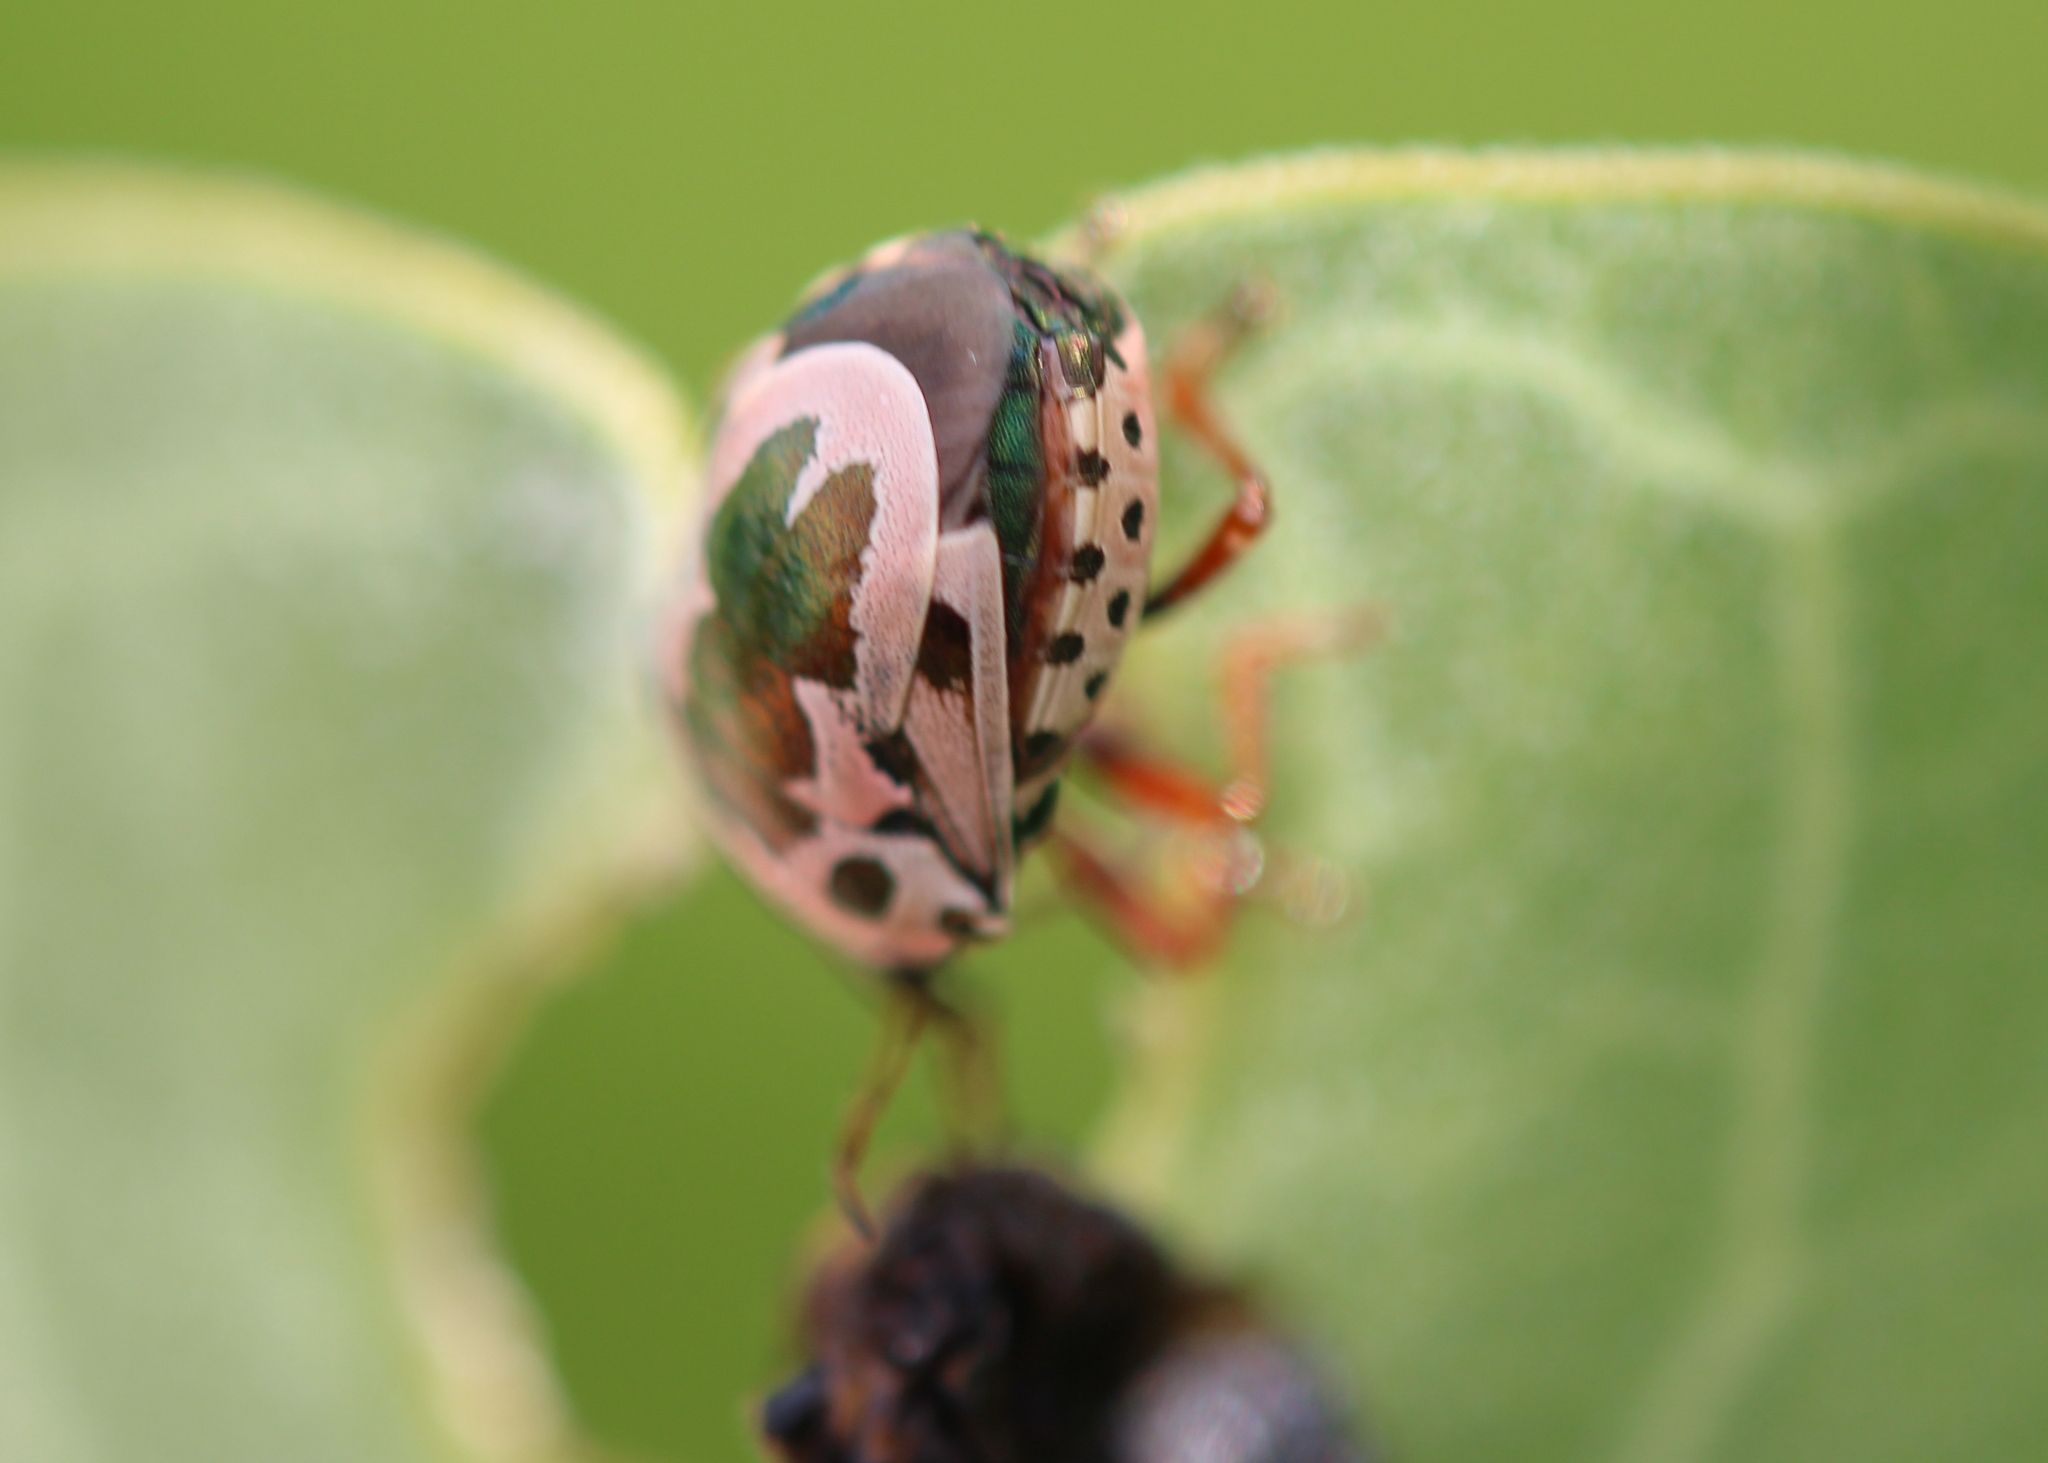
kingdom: Animalia
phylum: Arthropoda
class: Insecta
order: Hemiptera
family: Pentatomidae
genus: Stiretrus
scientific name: Stiretrus anchorago
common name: Anchor stink bug
